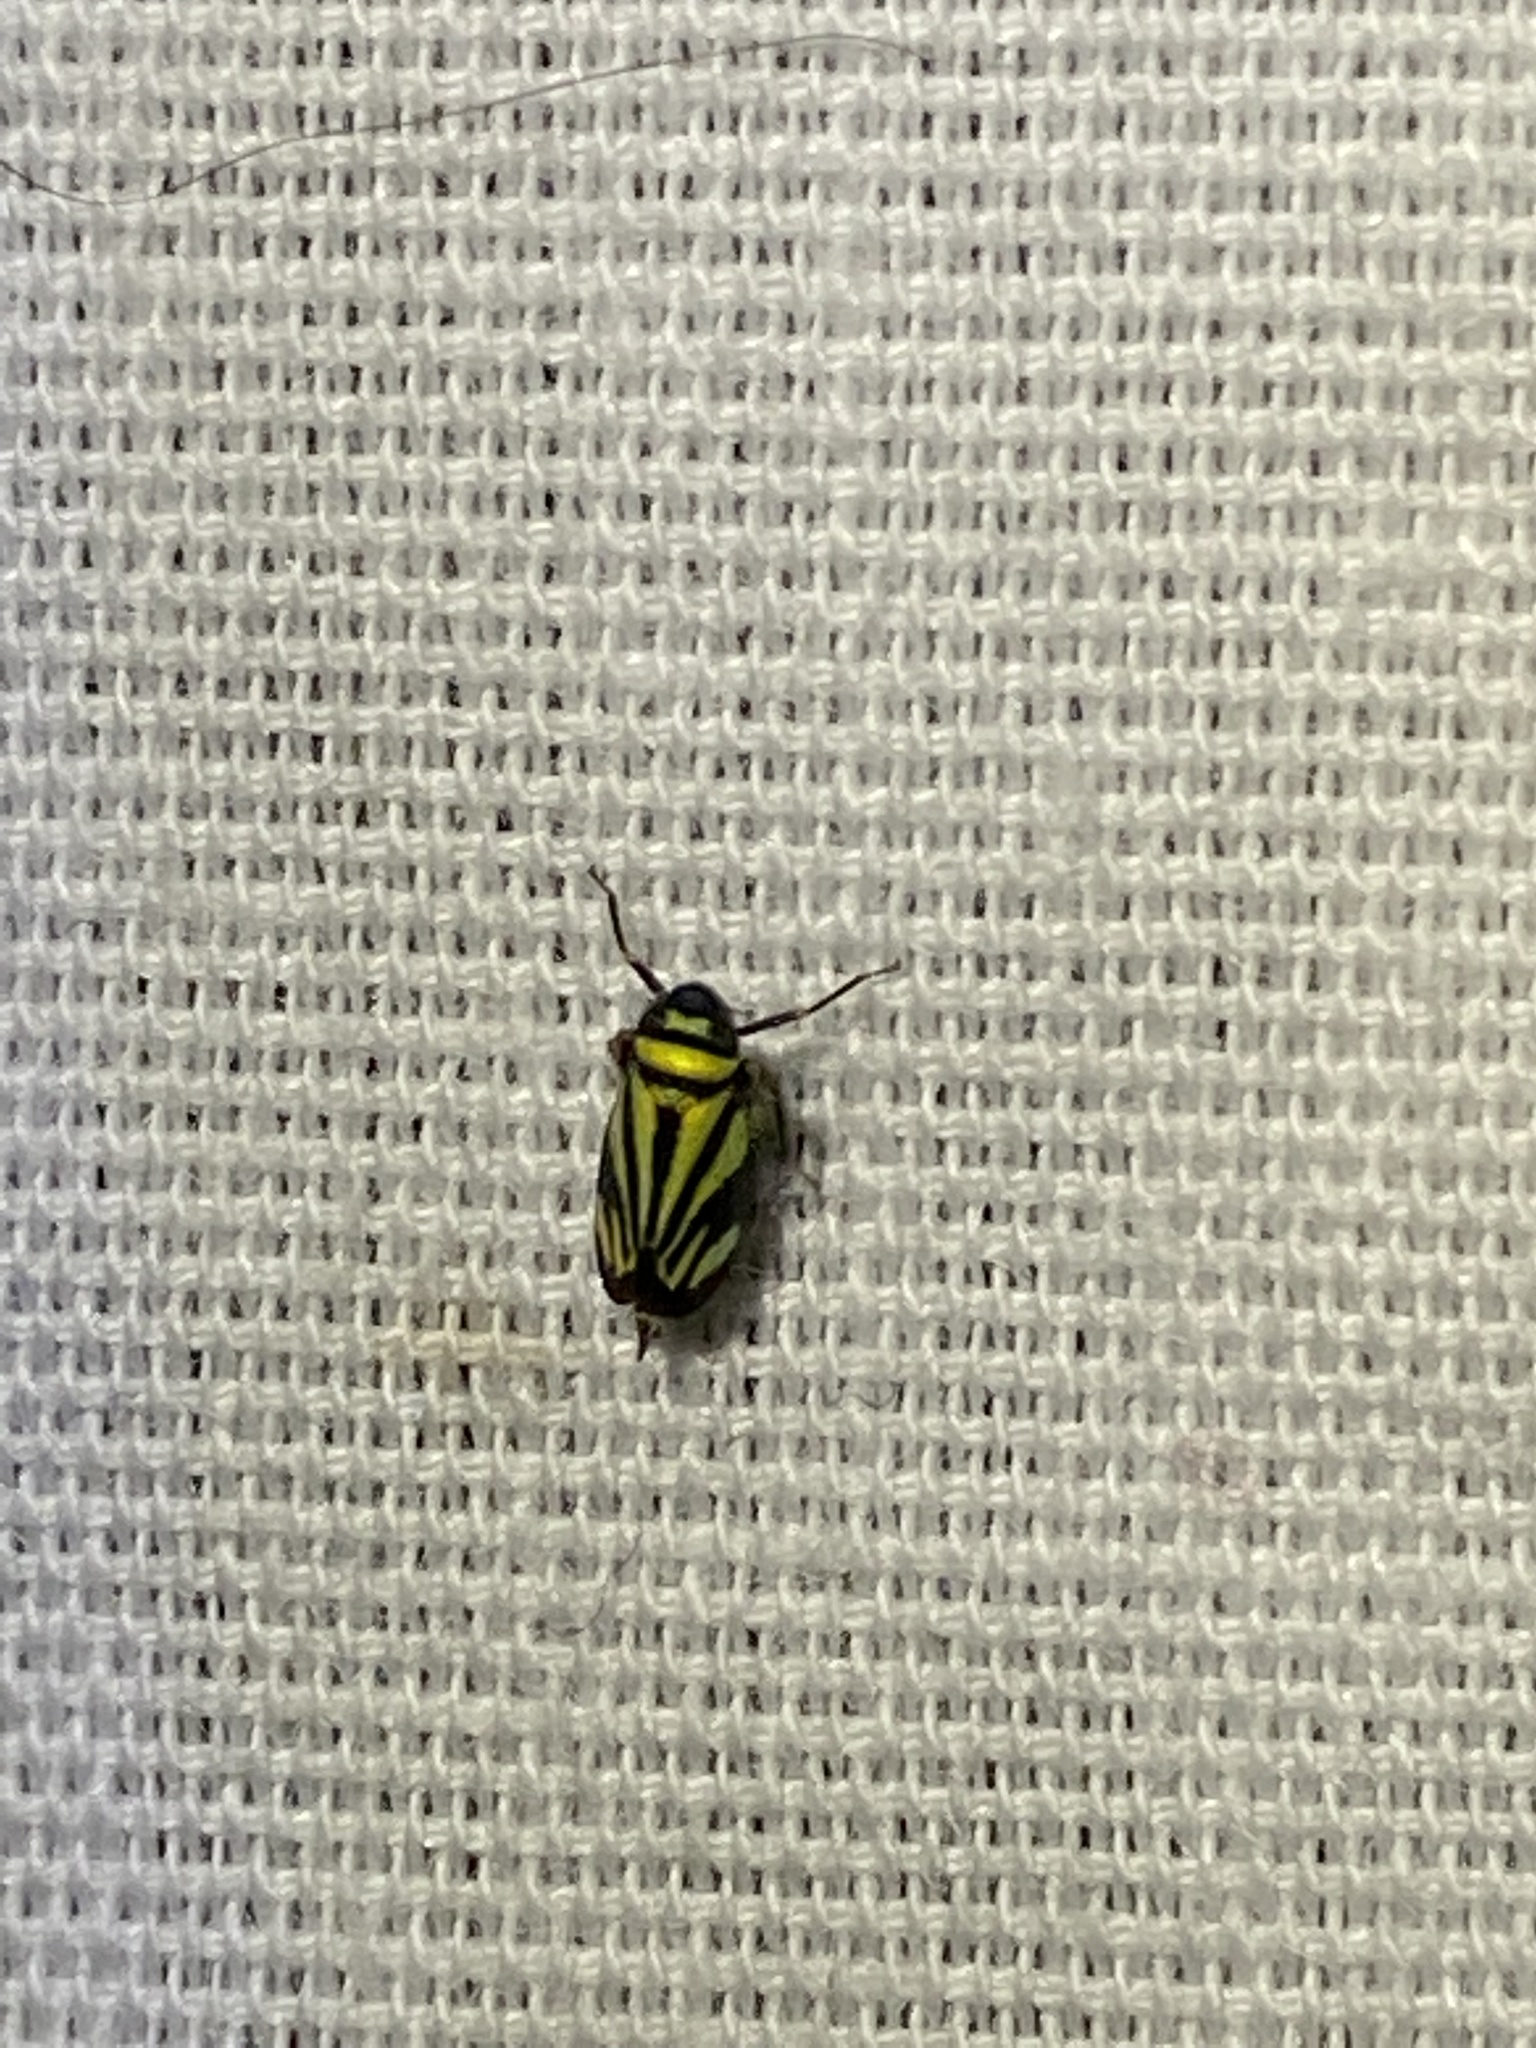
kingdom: Animalia
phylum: Arthropoda
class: Insecta
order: Hemiptera
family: Cicadellidae
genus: Stirellus
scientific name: Stirellus bicolor
